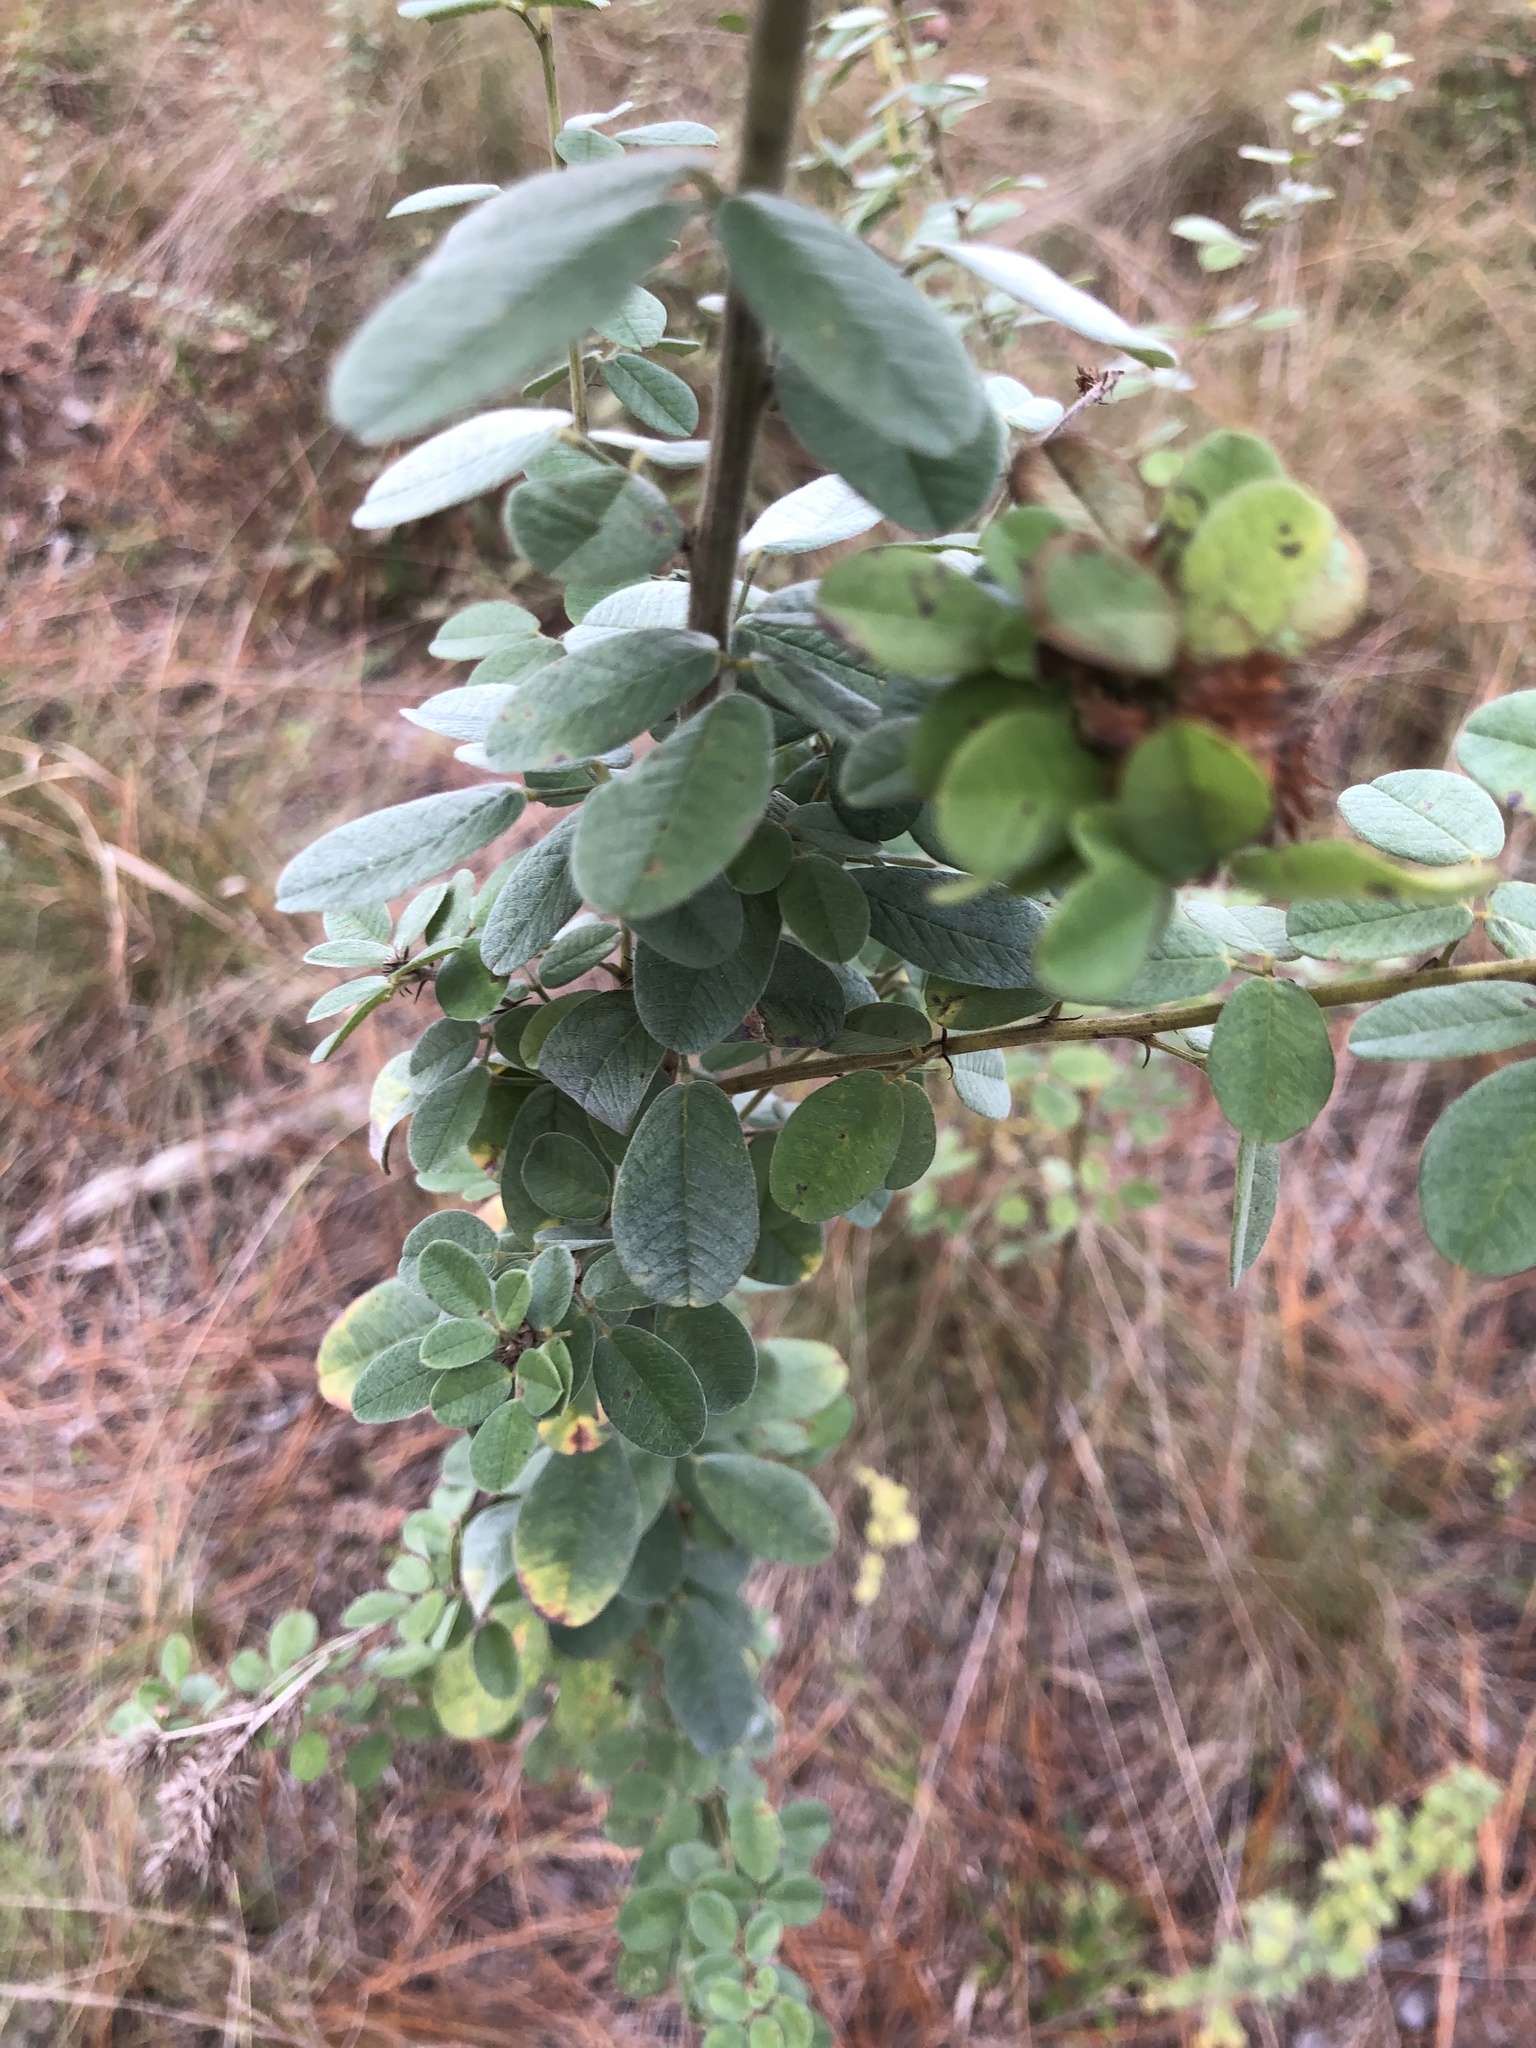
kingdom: Plantae
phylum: Tracheophyta
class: Magnoliopsida
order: Fabales
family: Fabaceae
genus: Lespedeza
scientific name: Lespedeza hirta
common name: Hairy lespedeza
